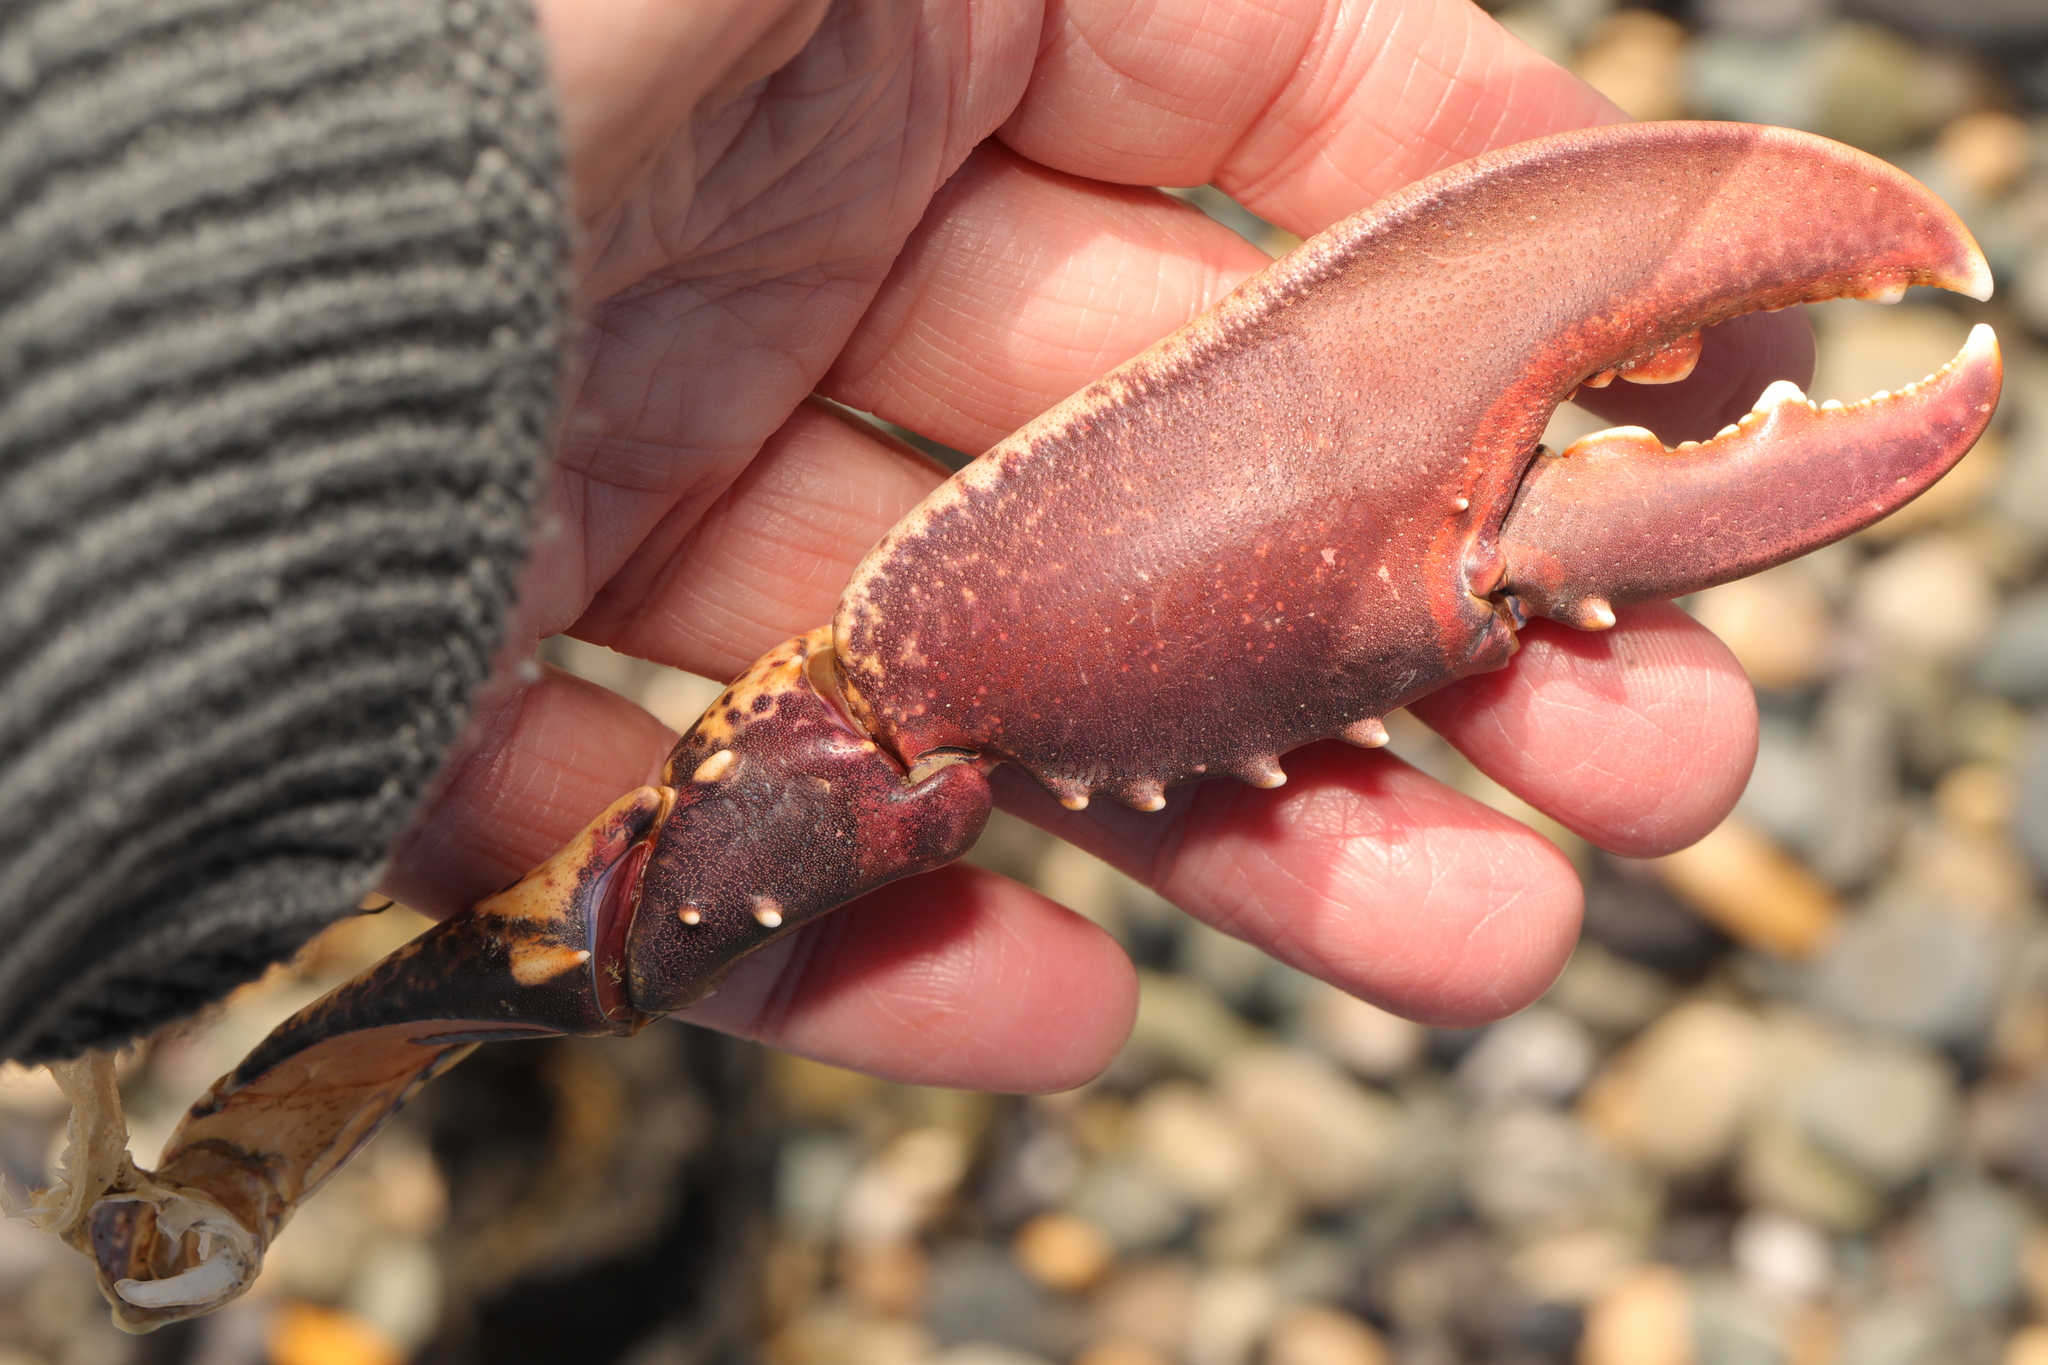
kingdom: Animalia
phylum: Arthropoda
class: Malacostraca
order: Decapoda
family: Nephropidae
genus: Homarus
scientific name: Homarus gammarus
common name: European lobster
